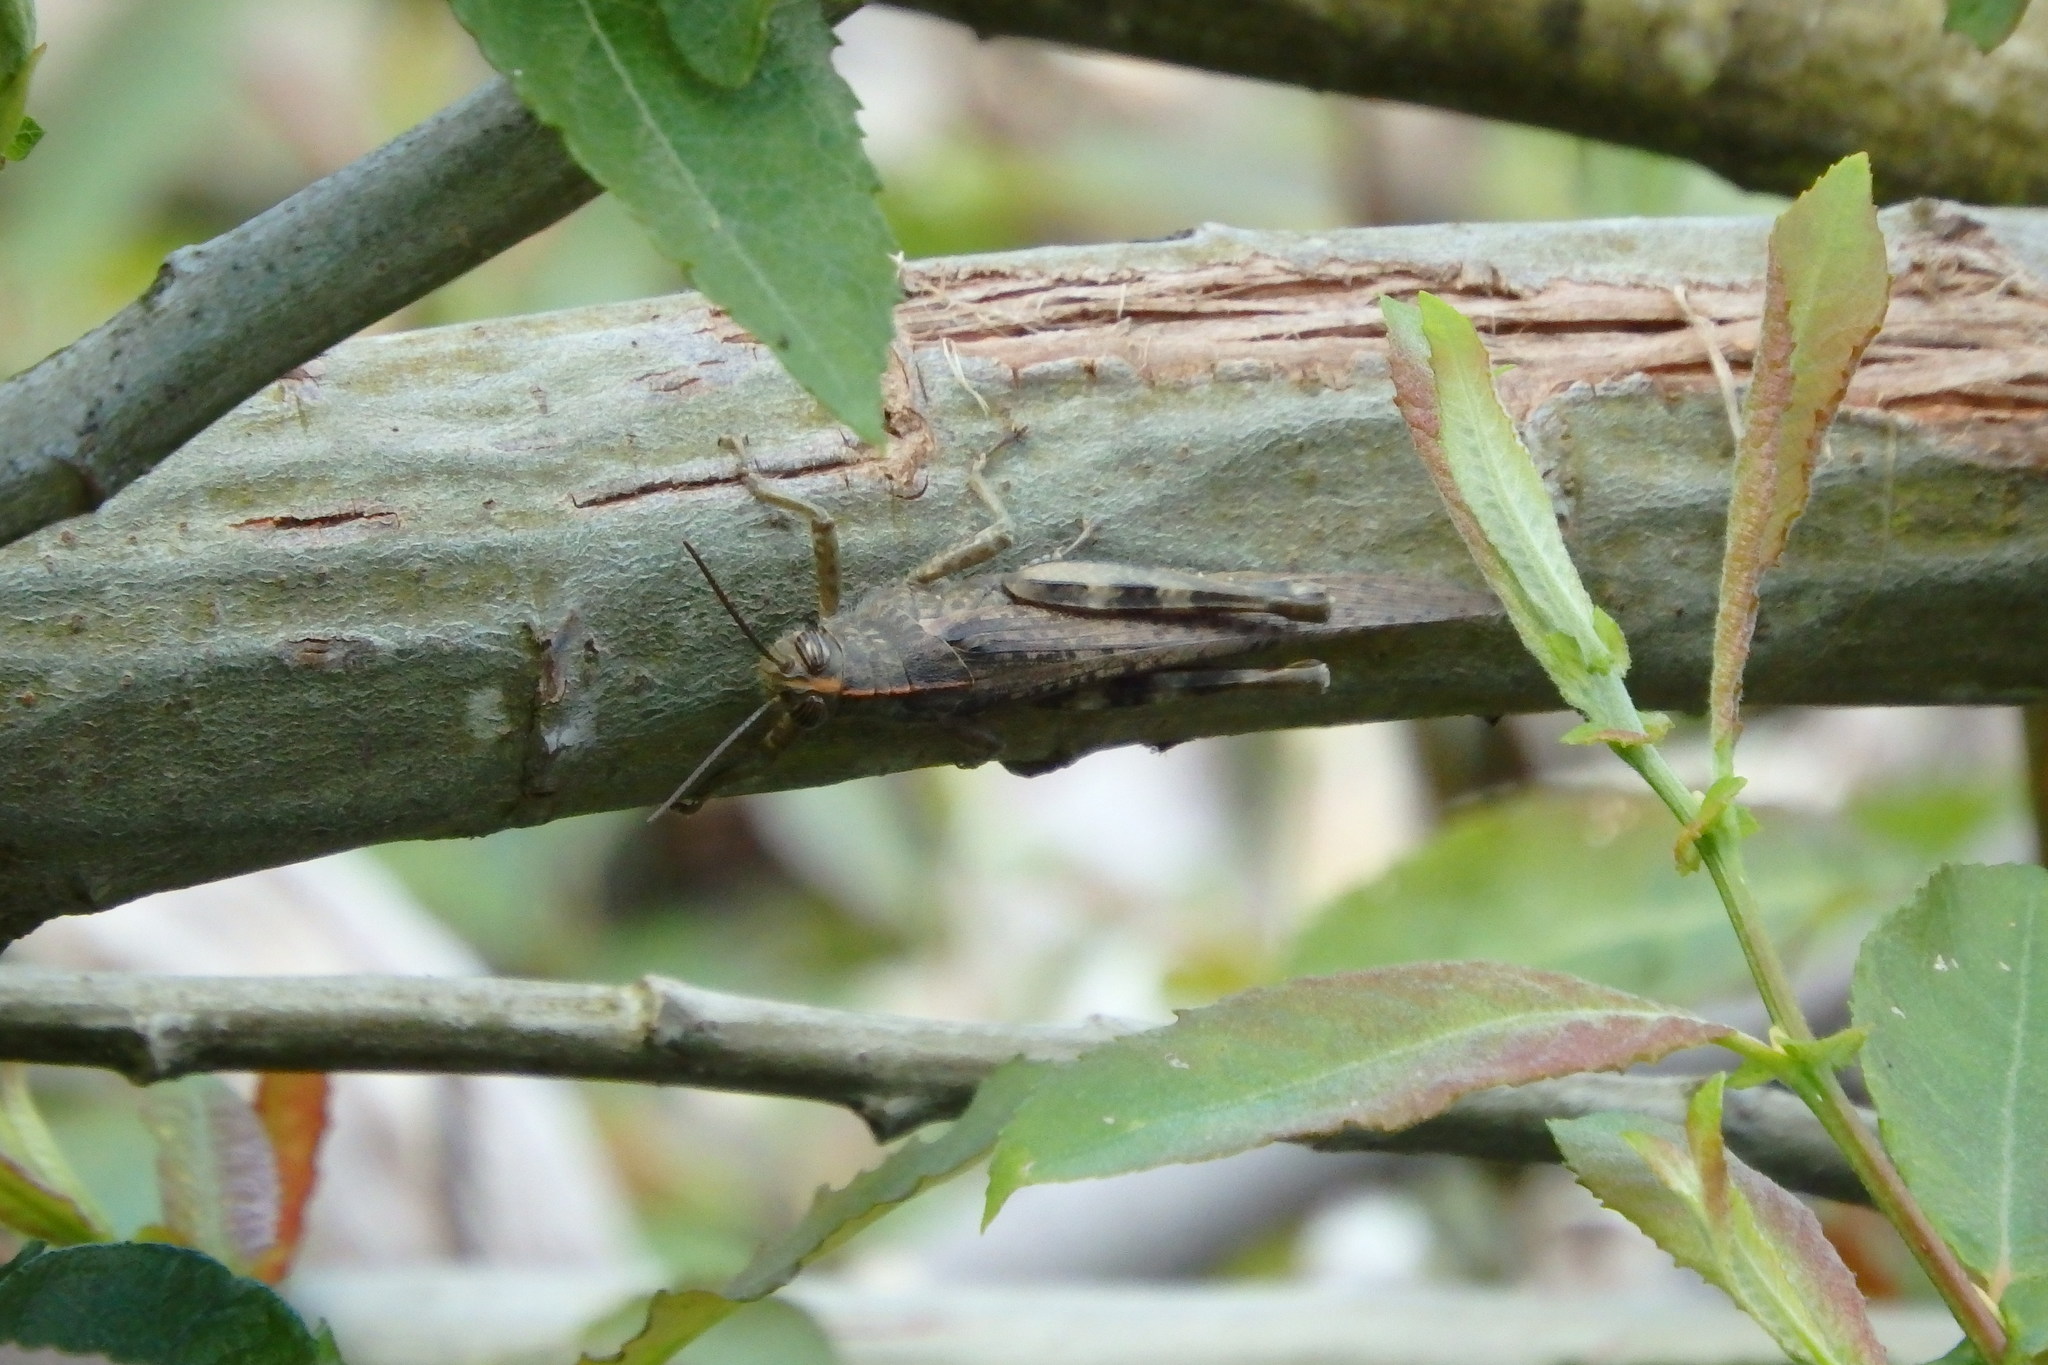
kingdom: Animalia
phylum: Arthropoda
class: Insecta
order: Orthoptera
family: Acrididae
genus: Anacridium
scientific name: Anacridium aegyptium
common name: Egyptian grasshopper
